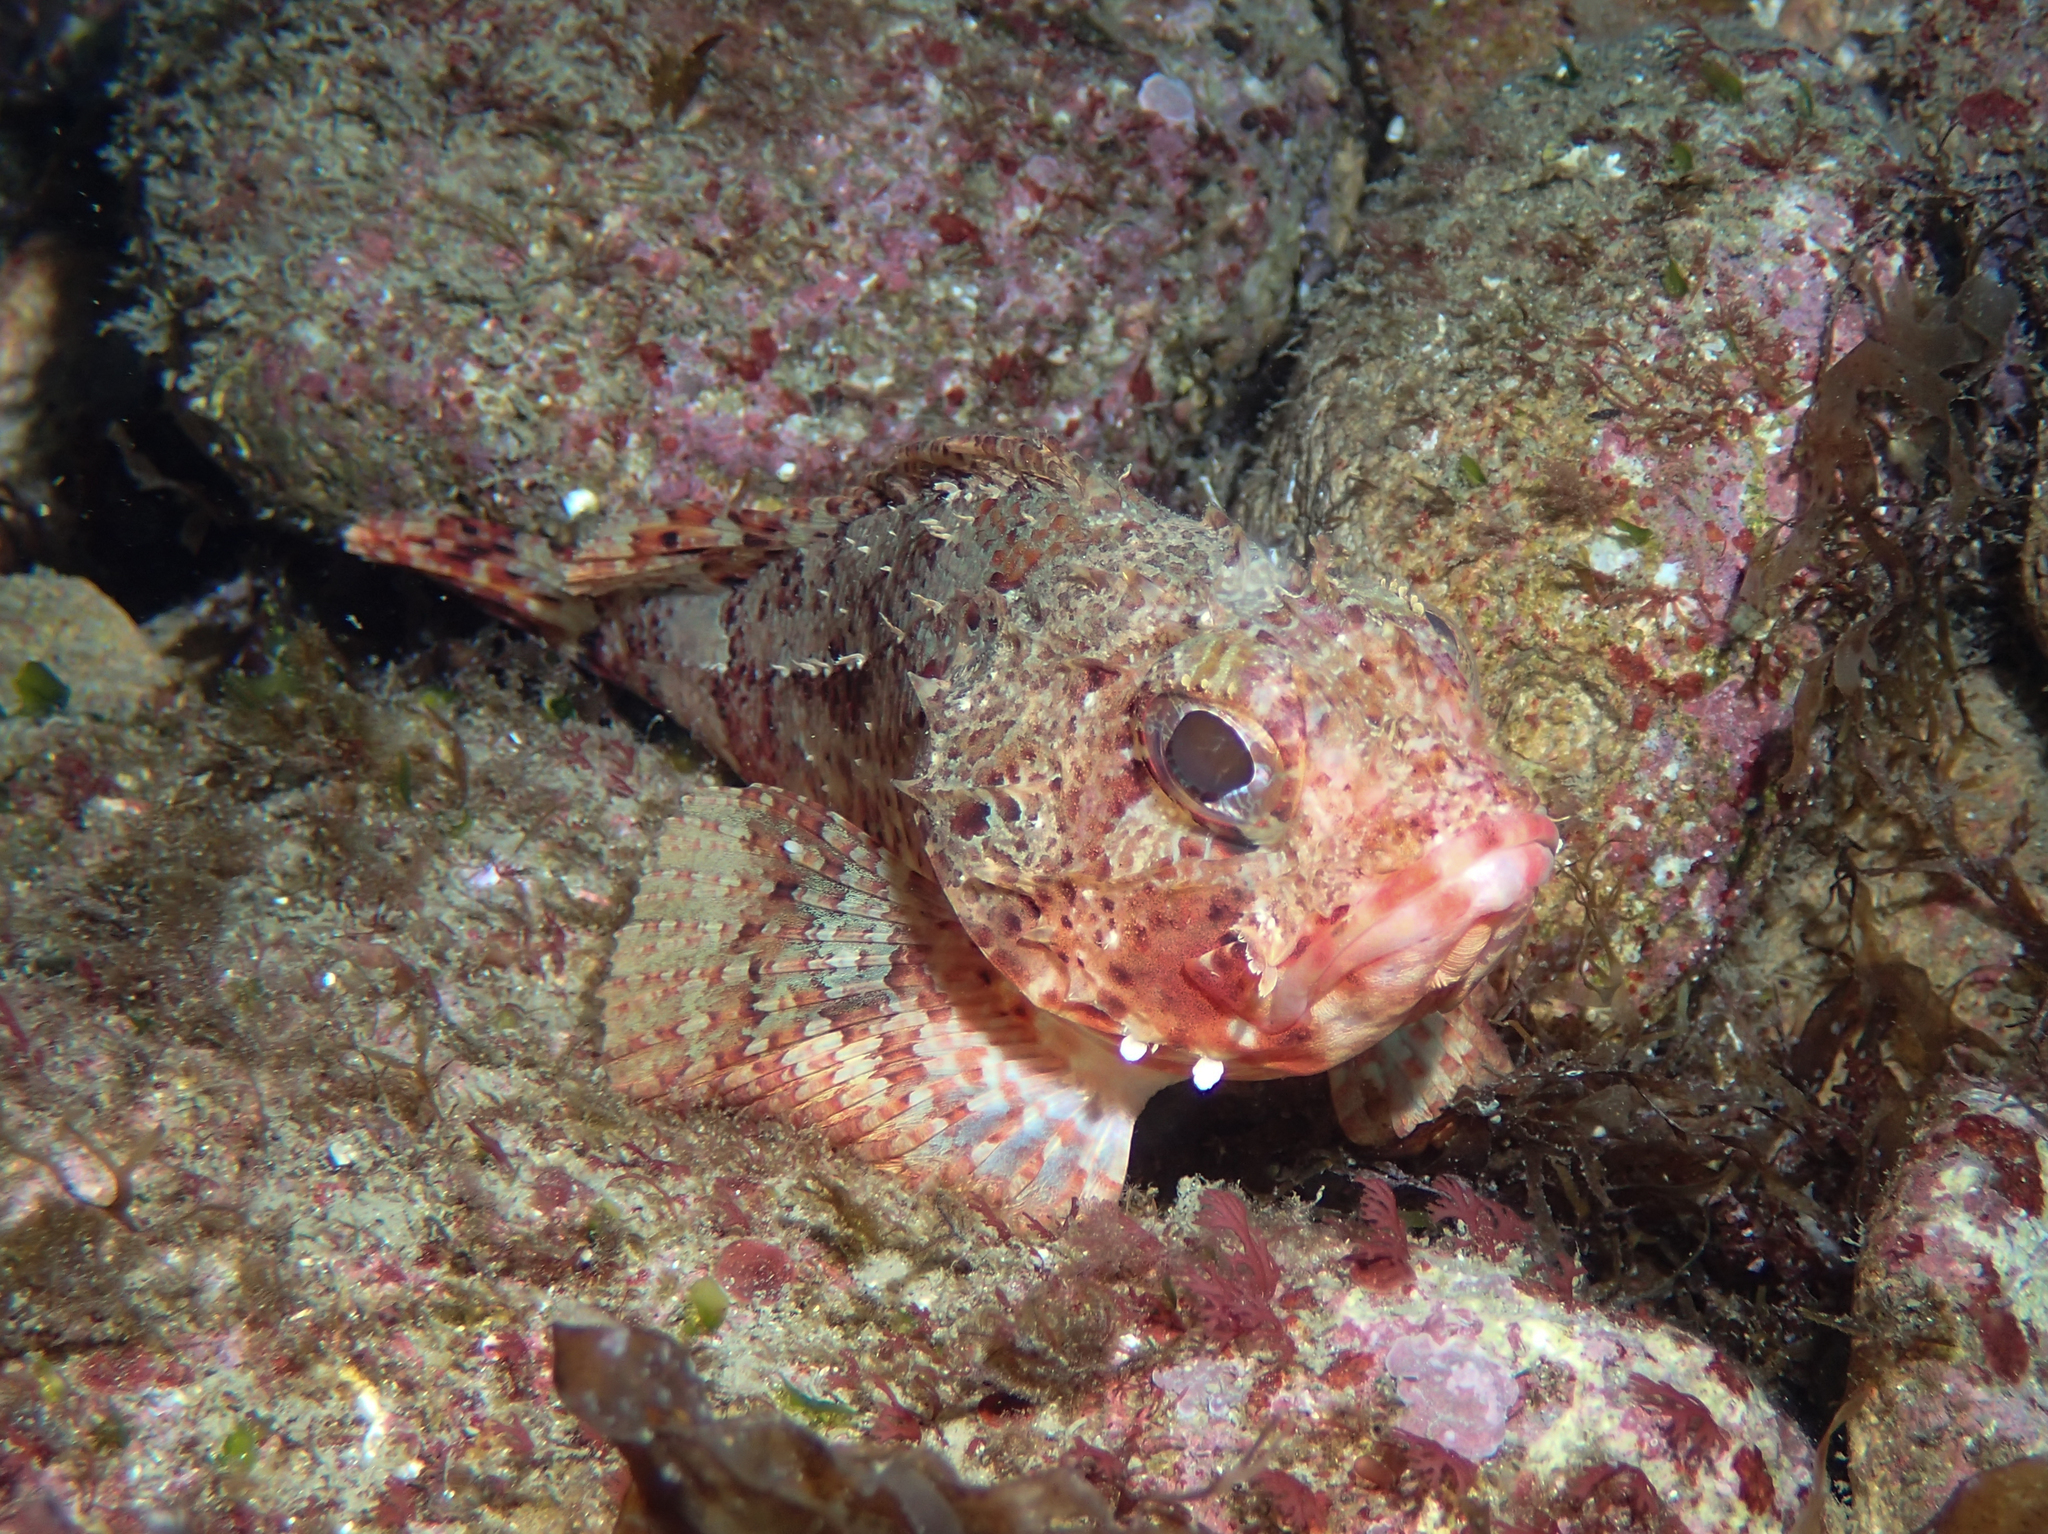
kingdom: Animalia
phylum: Chordata
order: Scorpaeniformes
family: Scorpaenidae
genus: Scorpaena
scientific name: Scorpaena notata
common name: Small red scorpionfish
